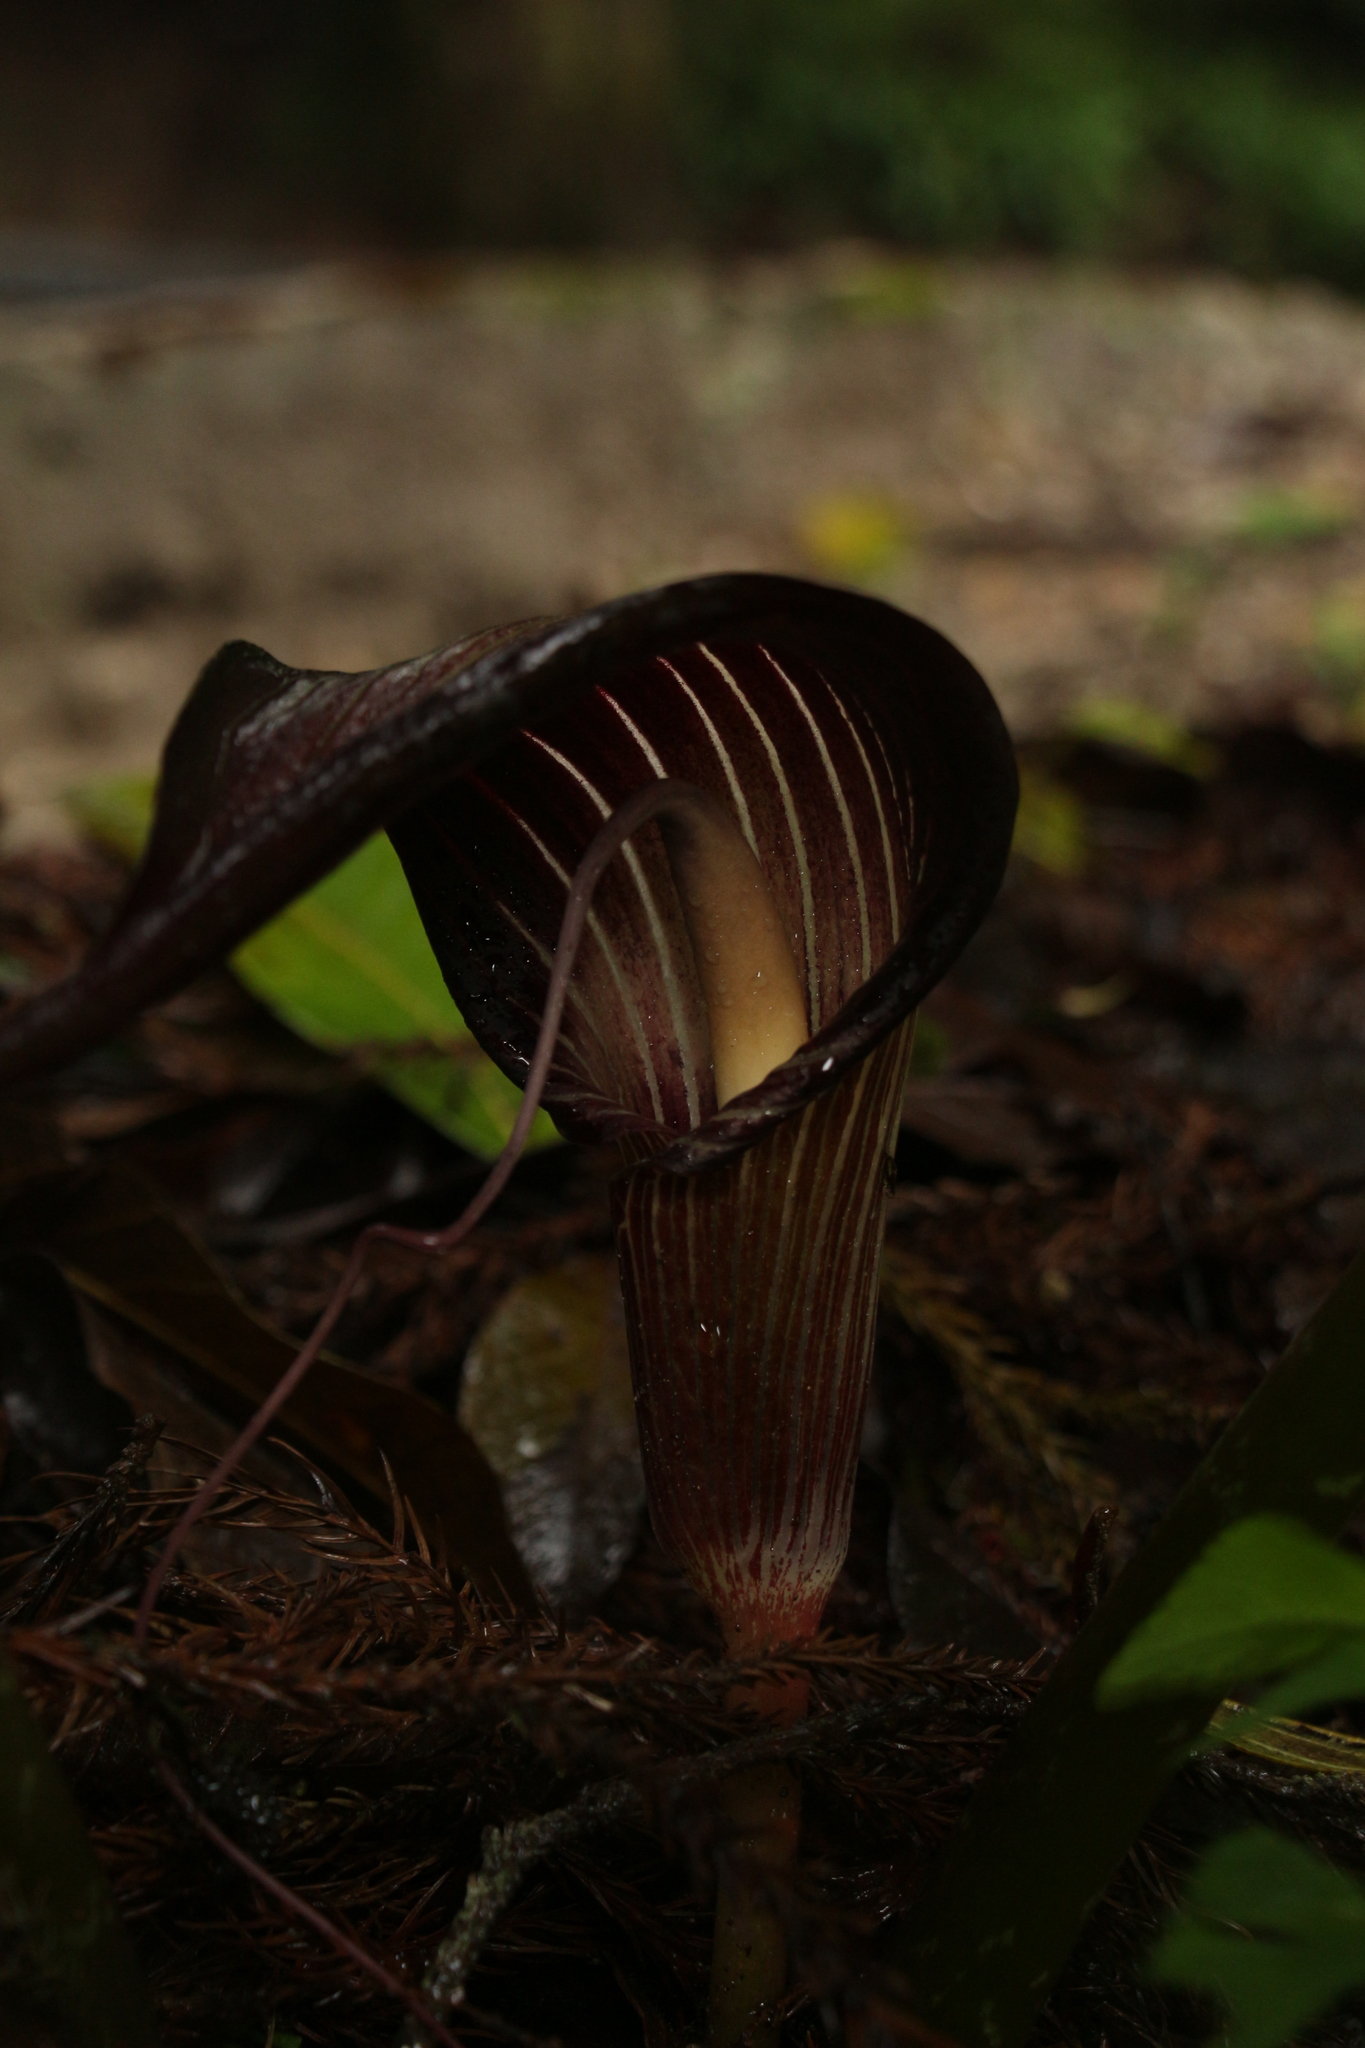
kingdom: Plantae
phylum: Tracheophyta
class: Liliopsida
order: Alismatales
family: Araceae
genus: Arisaema
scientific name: Arisaema speciosum
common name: Showy cobra-lily
